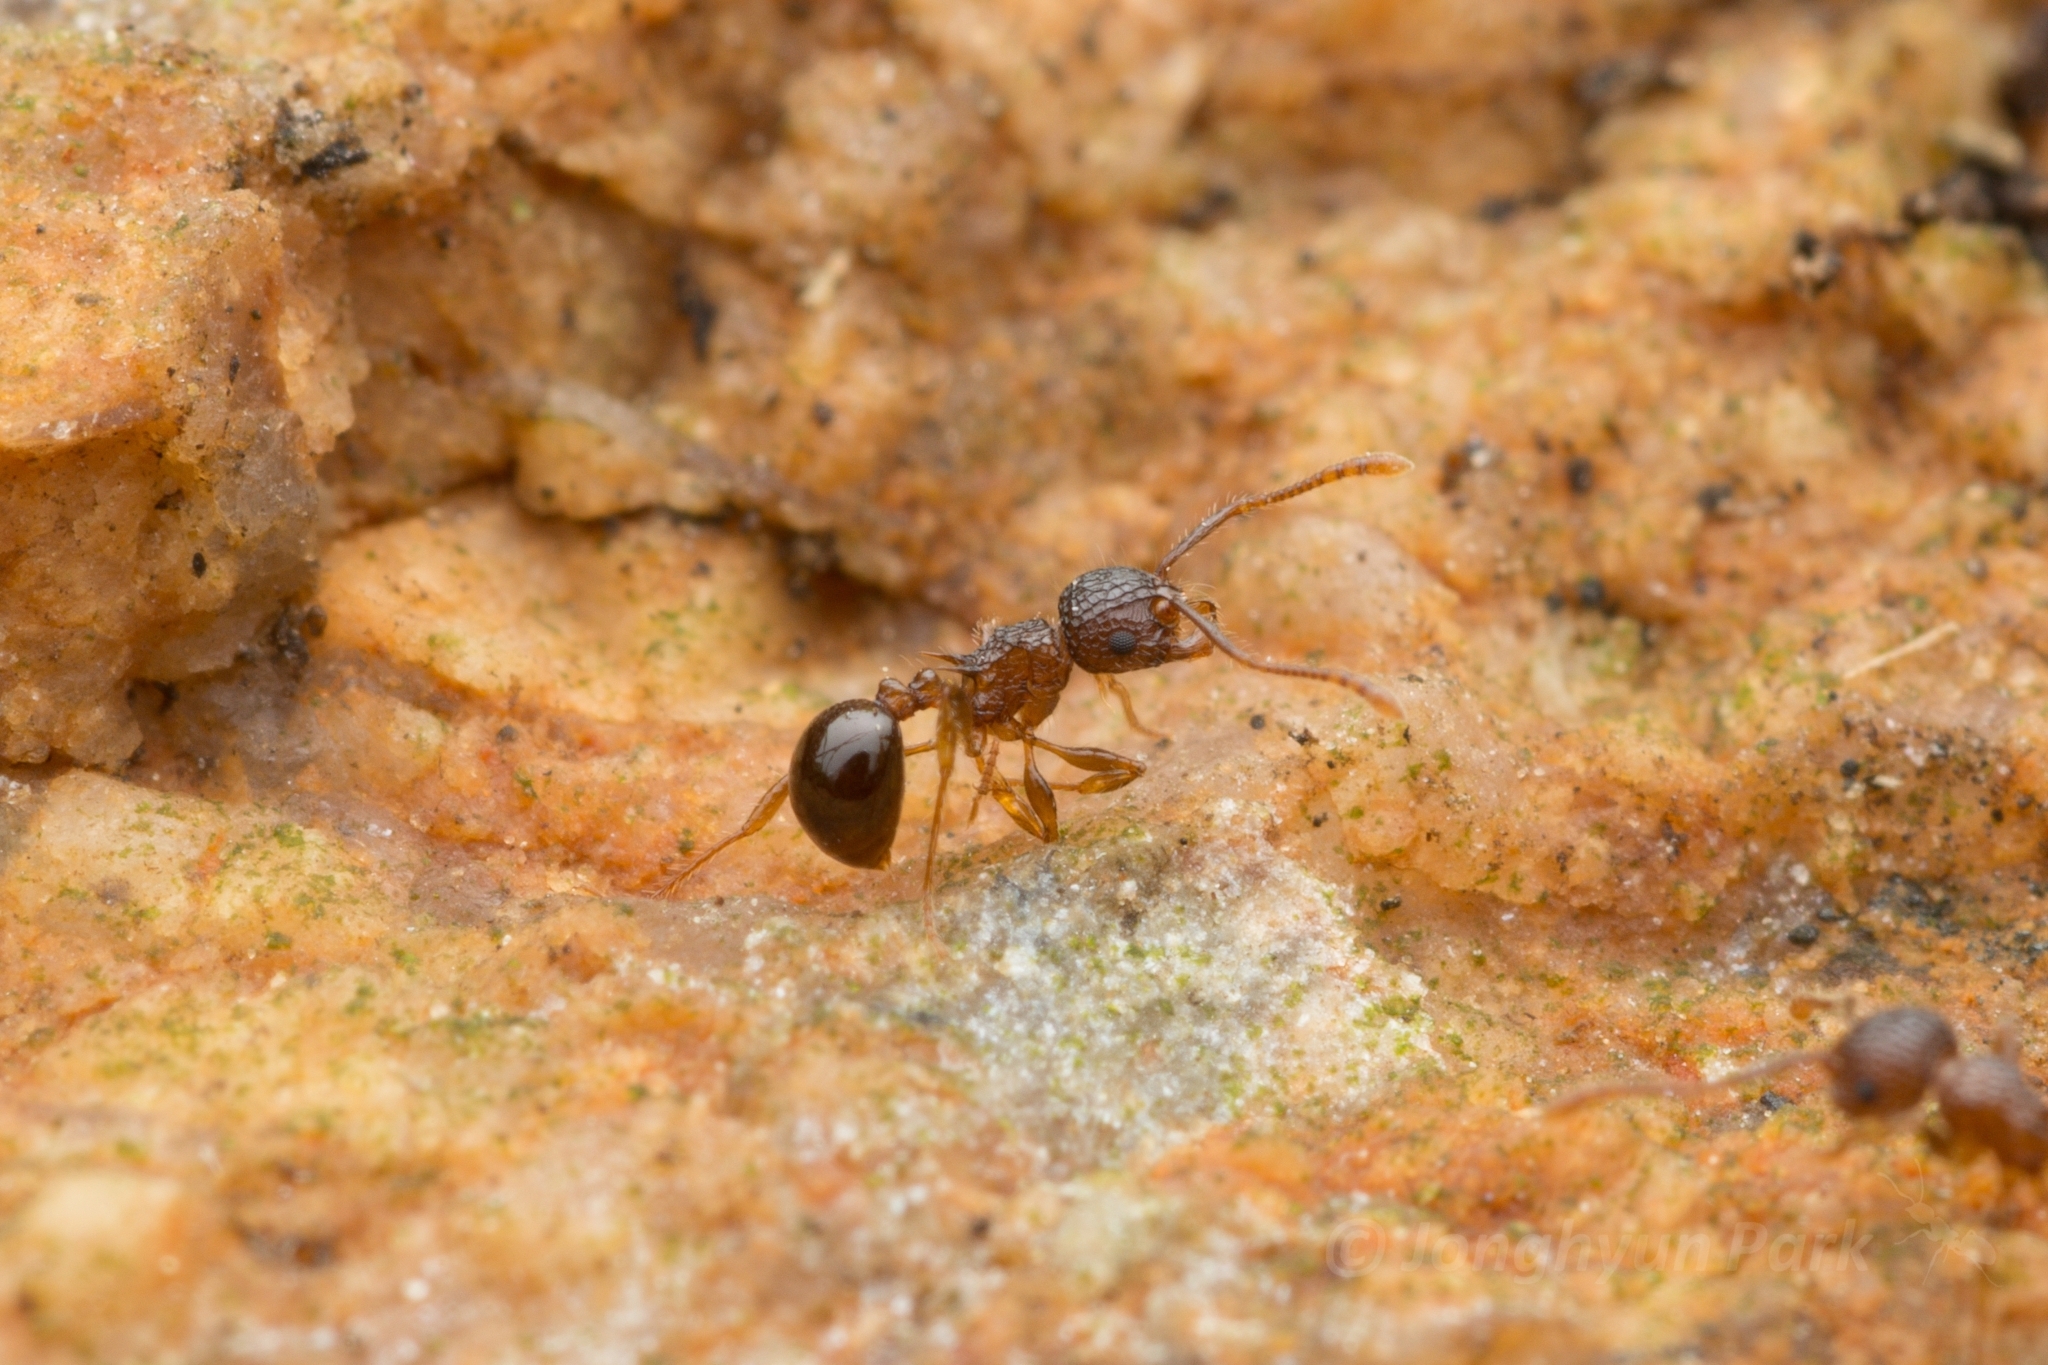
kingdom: Animalia
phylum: Arthropoda
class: Insecta
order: Hymenoptera
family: Formicidae
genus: Pristomyrmex
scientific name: Pristomyrmex punctatus
